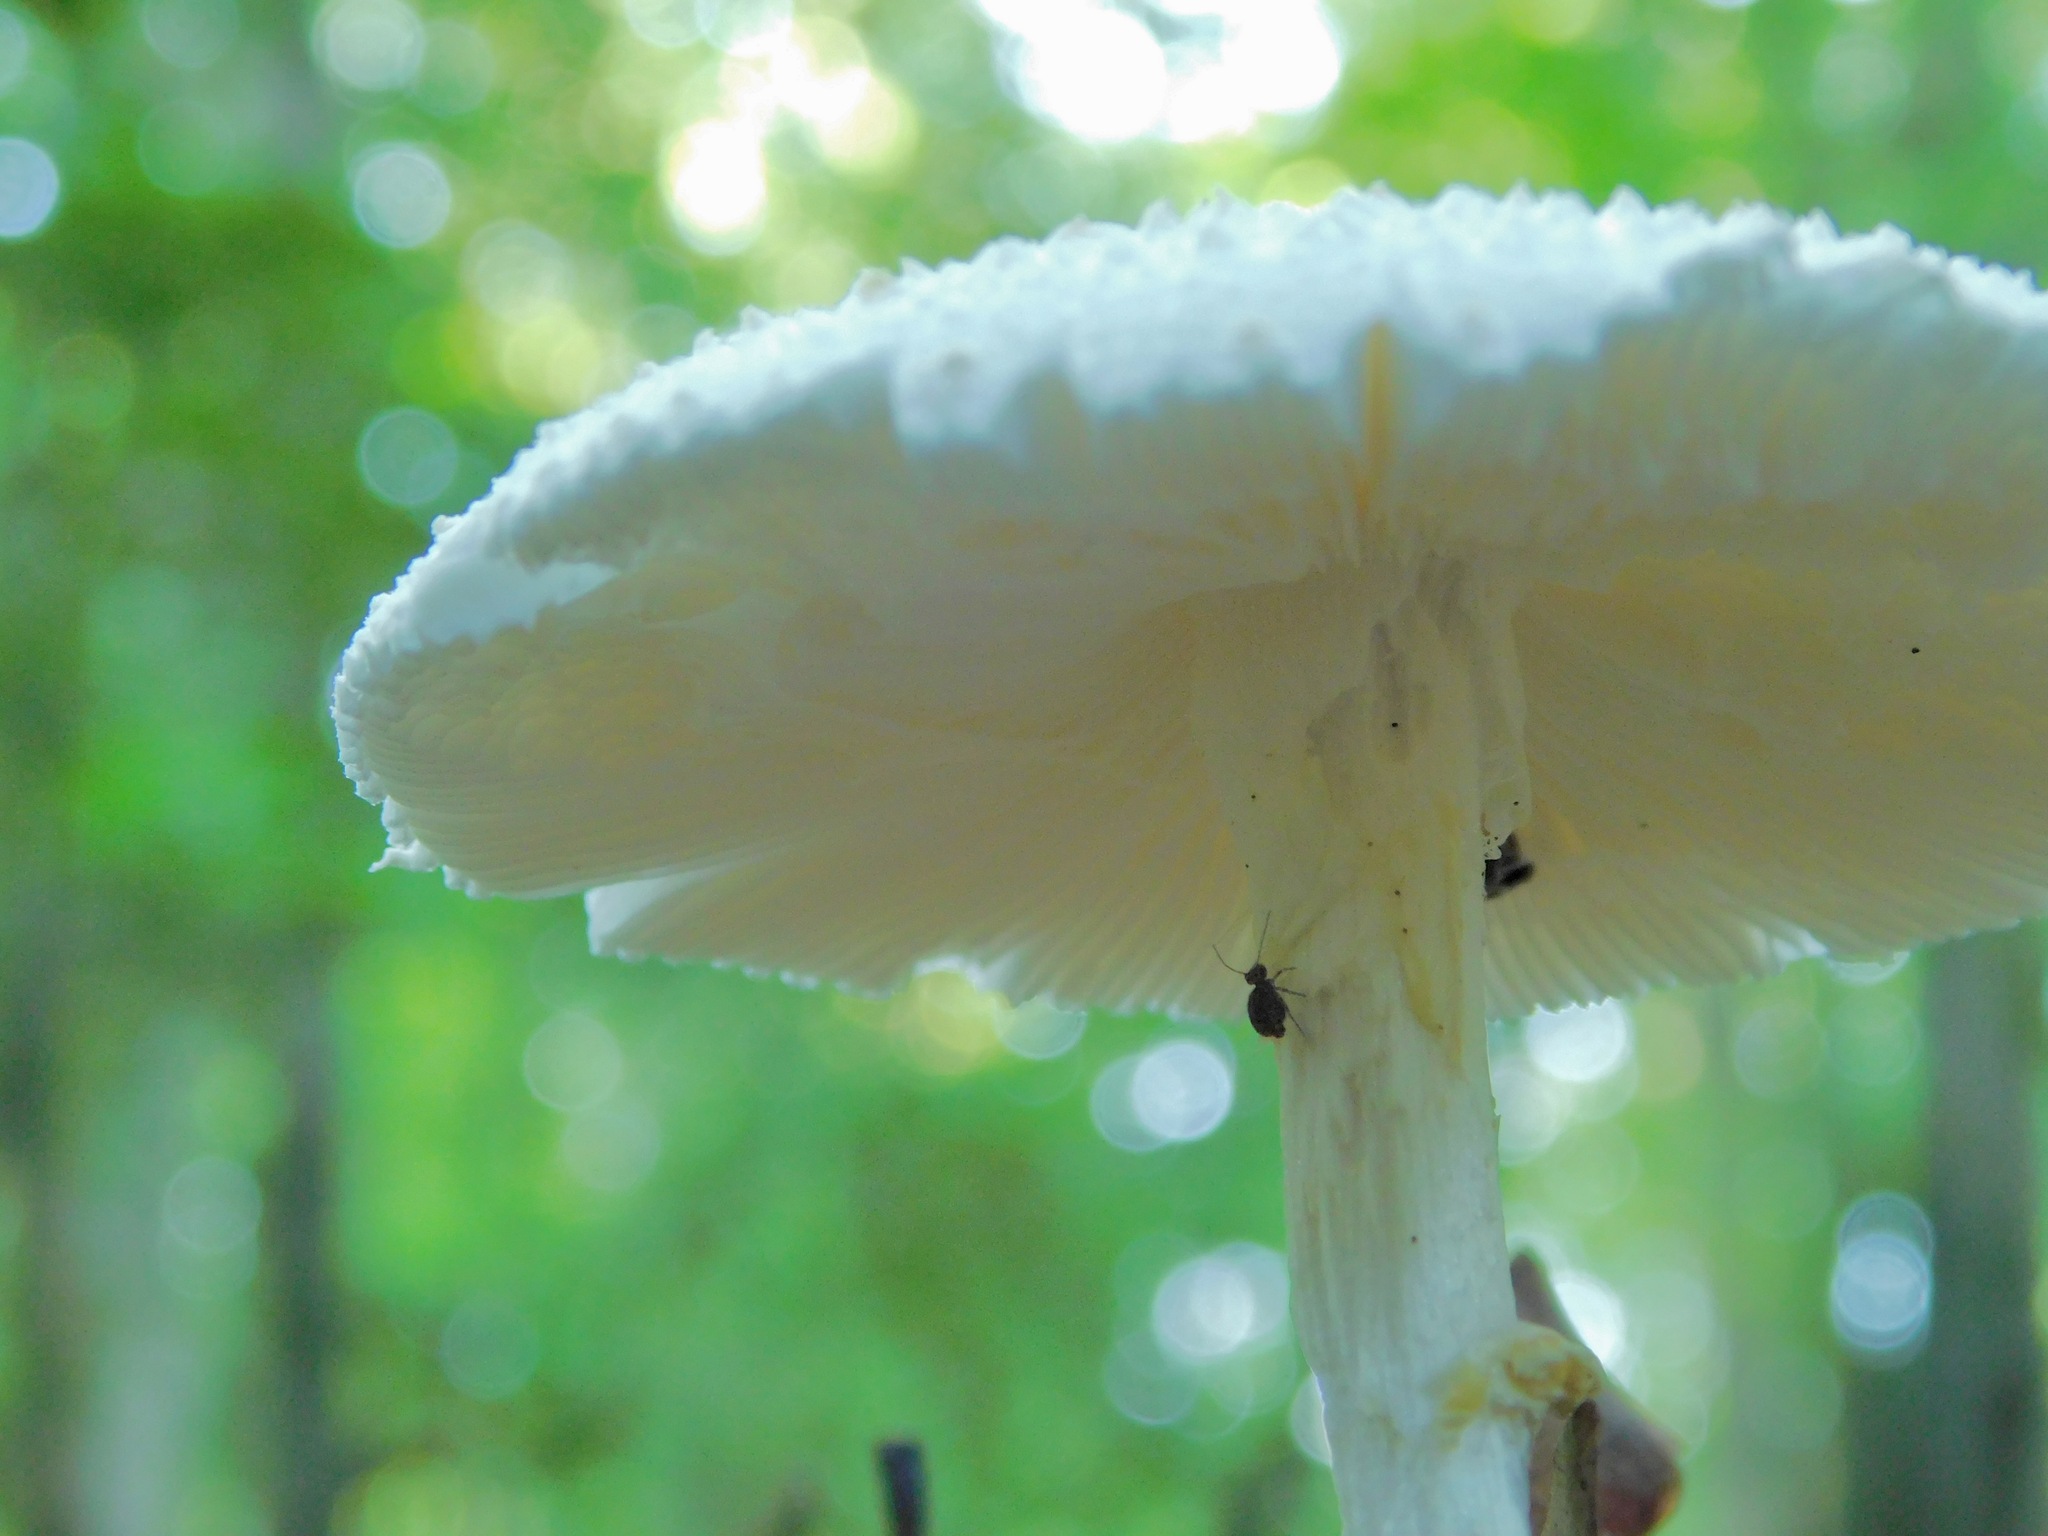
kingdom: Fungi
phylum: Basidiomycota
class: Agaricomycetes
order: Agaricales
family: Amanitaceae
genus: Amanita
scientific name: Amanita cokeri
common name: Coker's amanita
